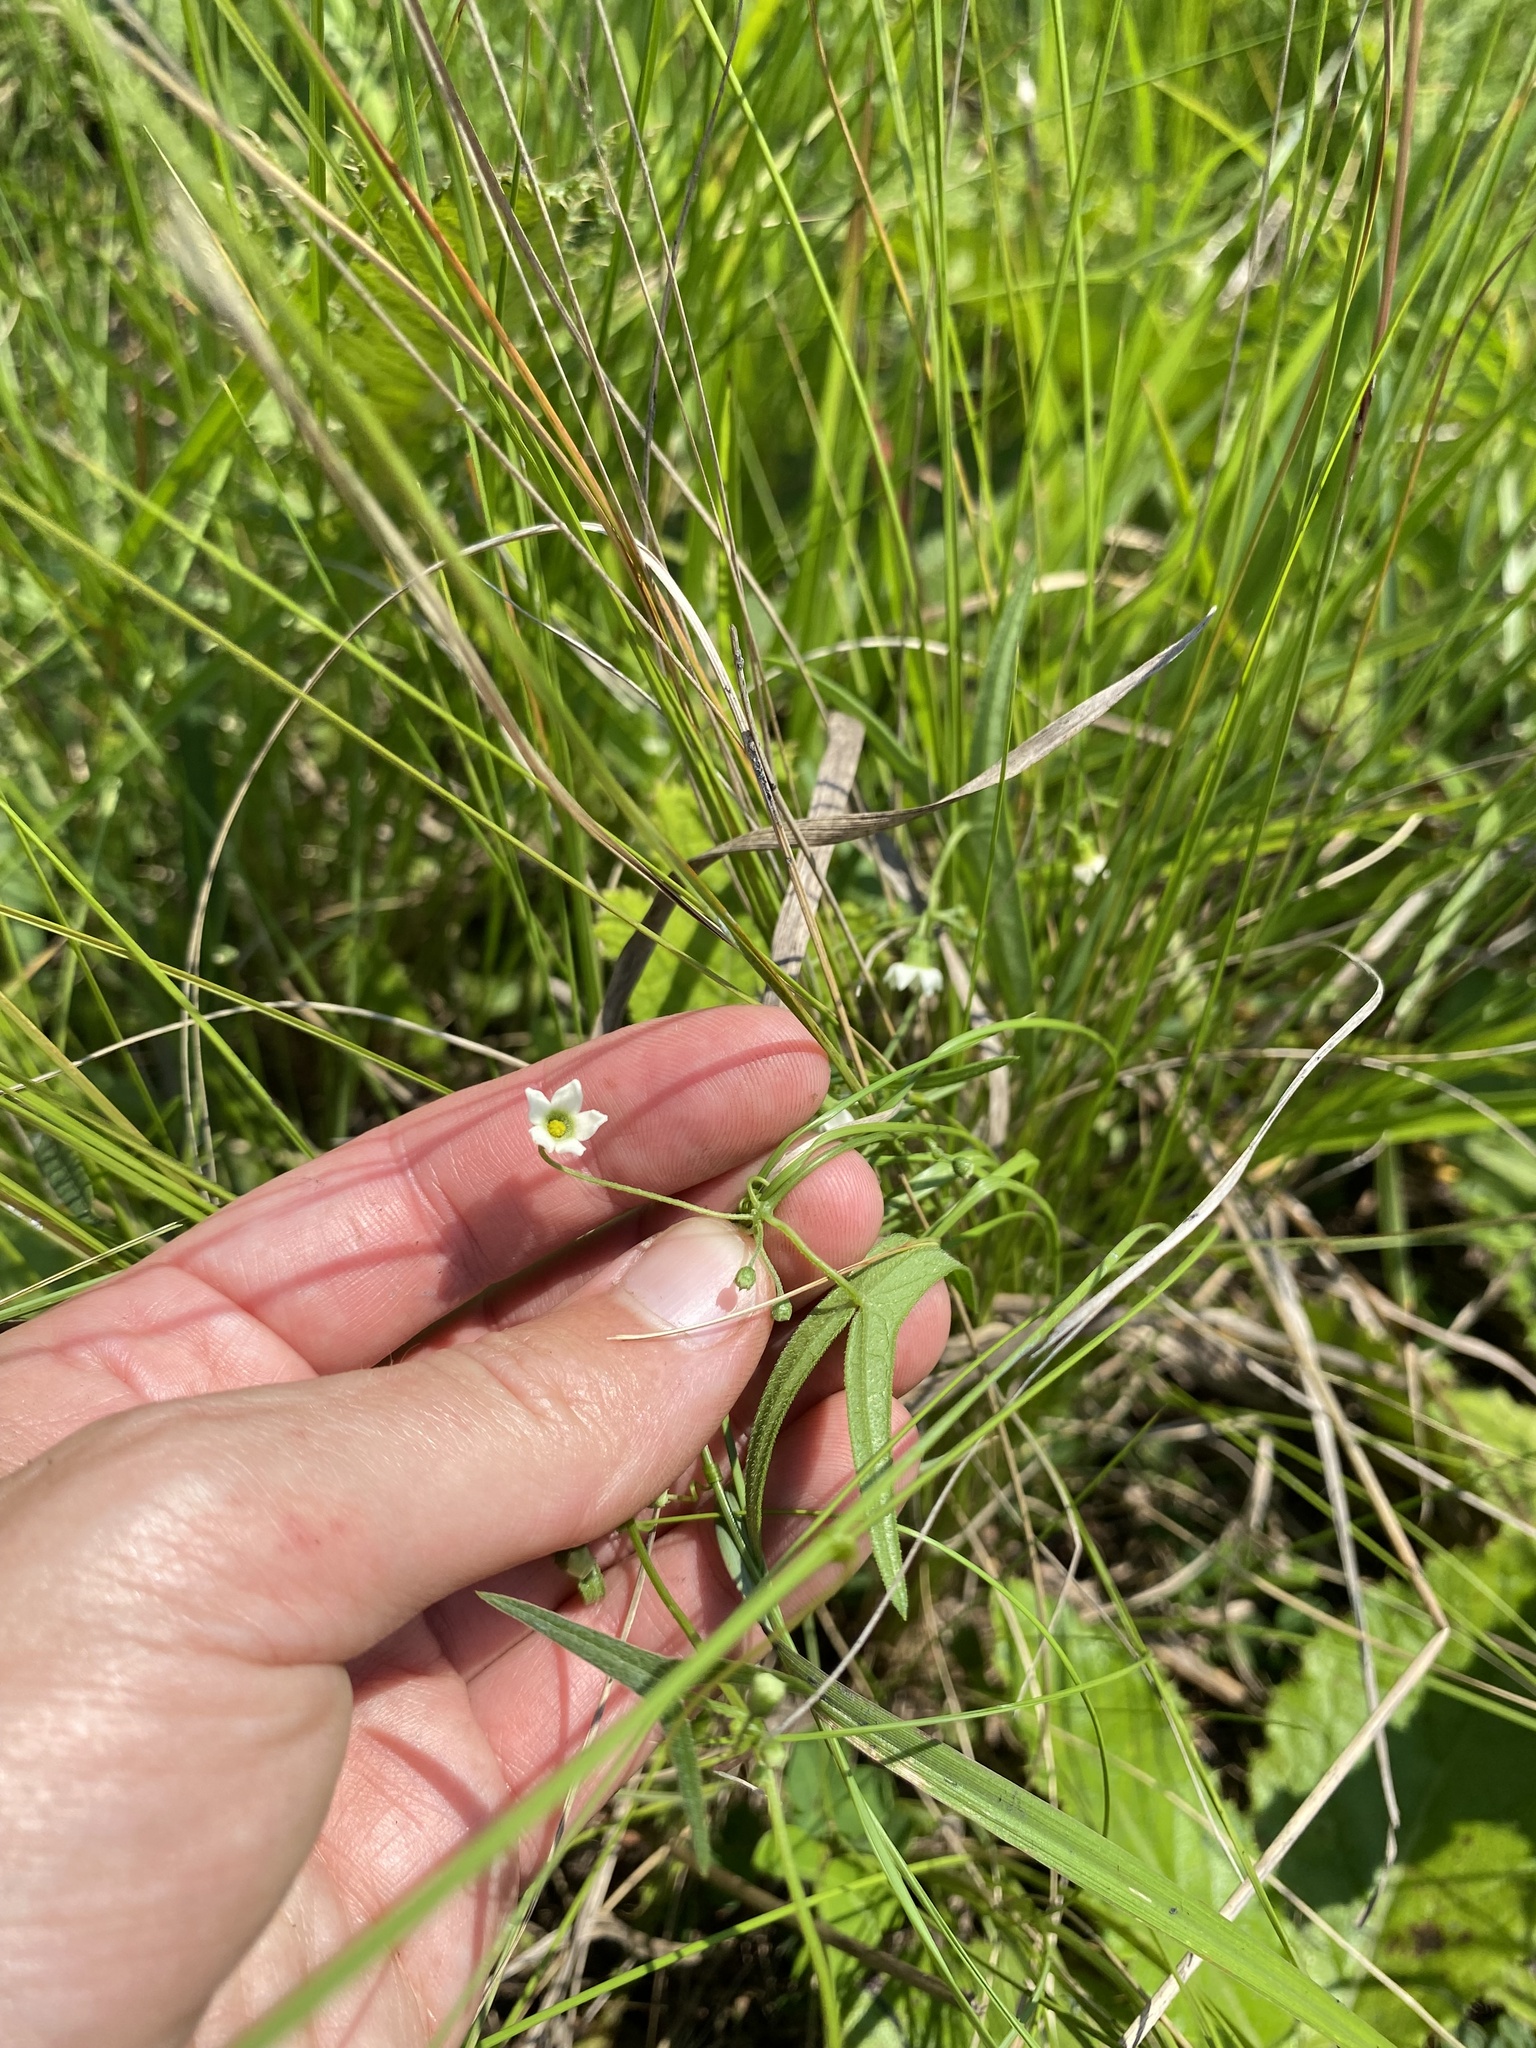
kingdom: Plantae
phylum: Tracheophyta
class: Magnoliopsida
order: Cucurbitales
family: Cucurbitaceae
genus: Trochomeria
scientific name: Trochomeria sagittata
